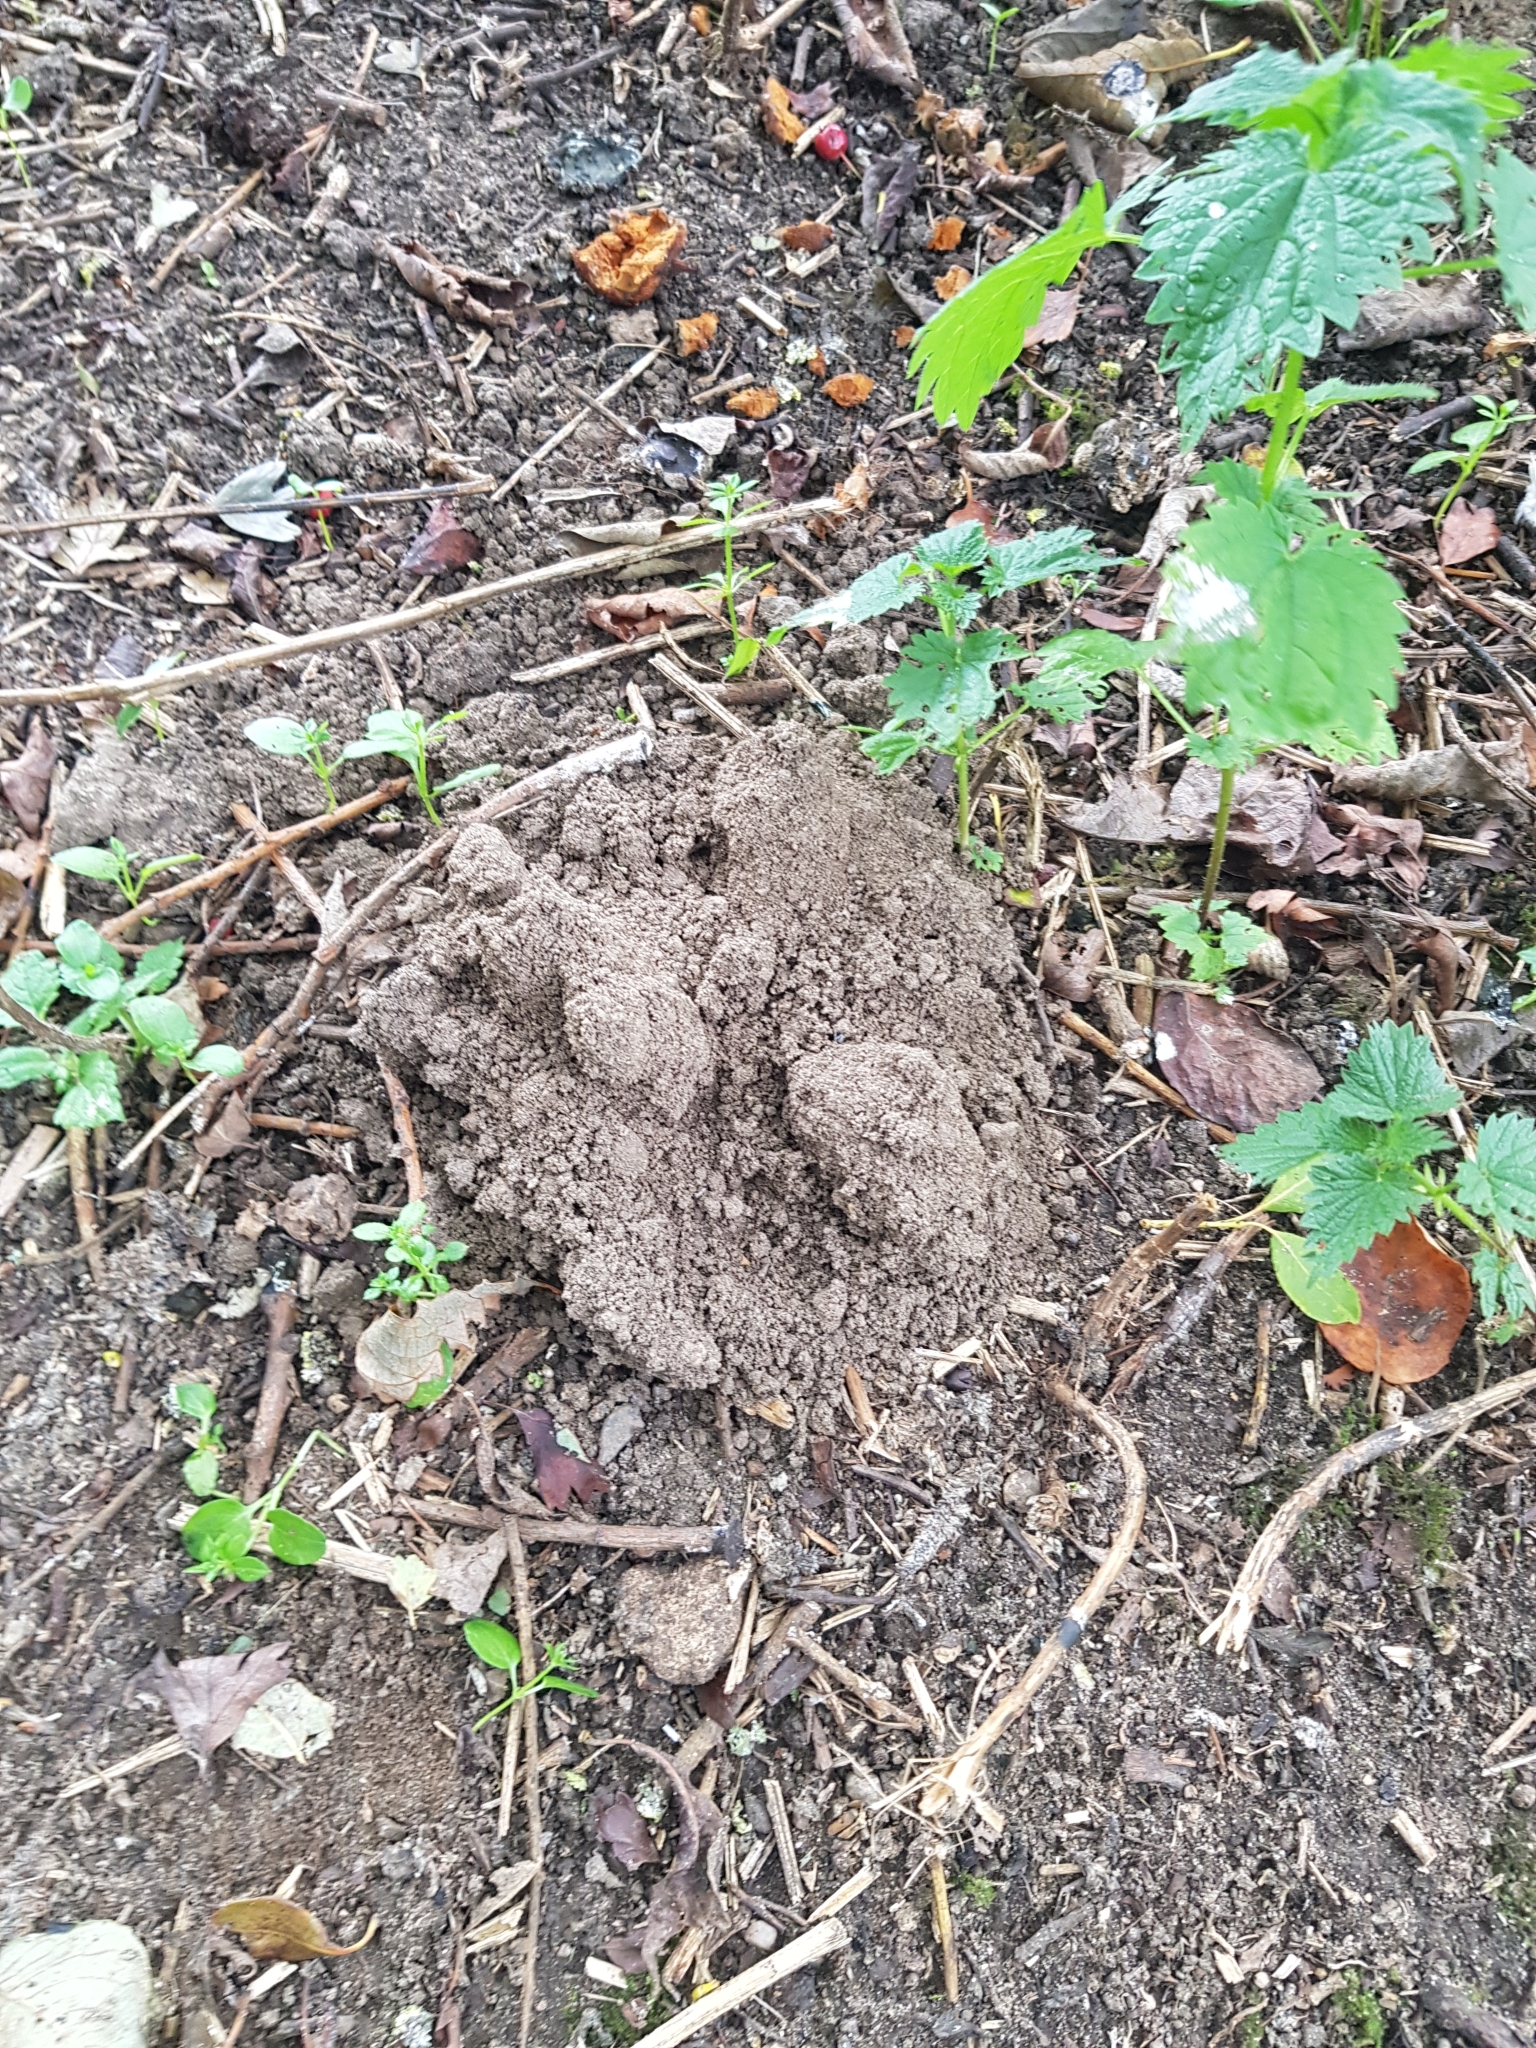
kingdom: Animalia
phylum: Chordata
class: Mammalia
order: Soricomorpha
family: Talpidae
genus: Talpa
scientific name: Talpa europaea
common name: European mole
